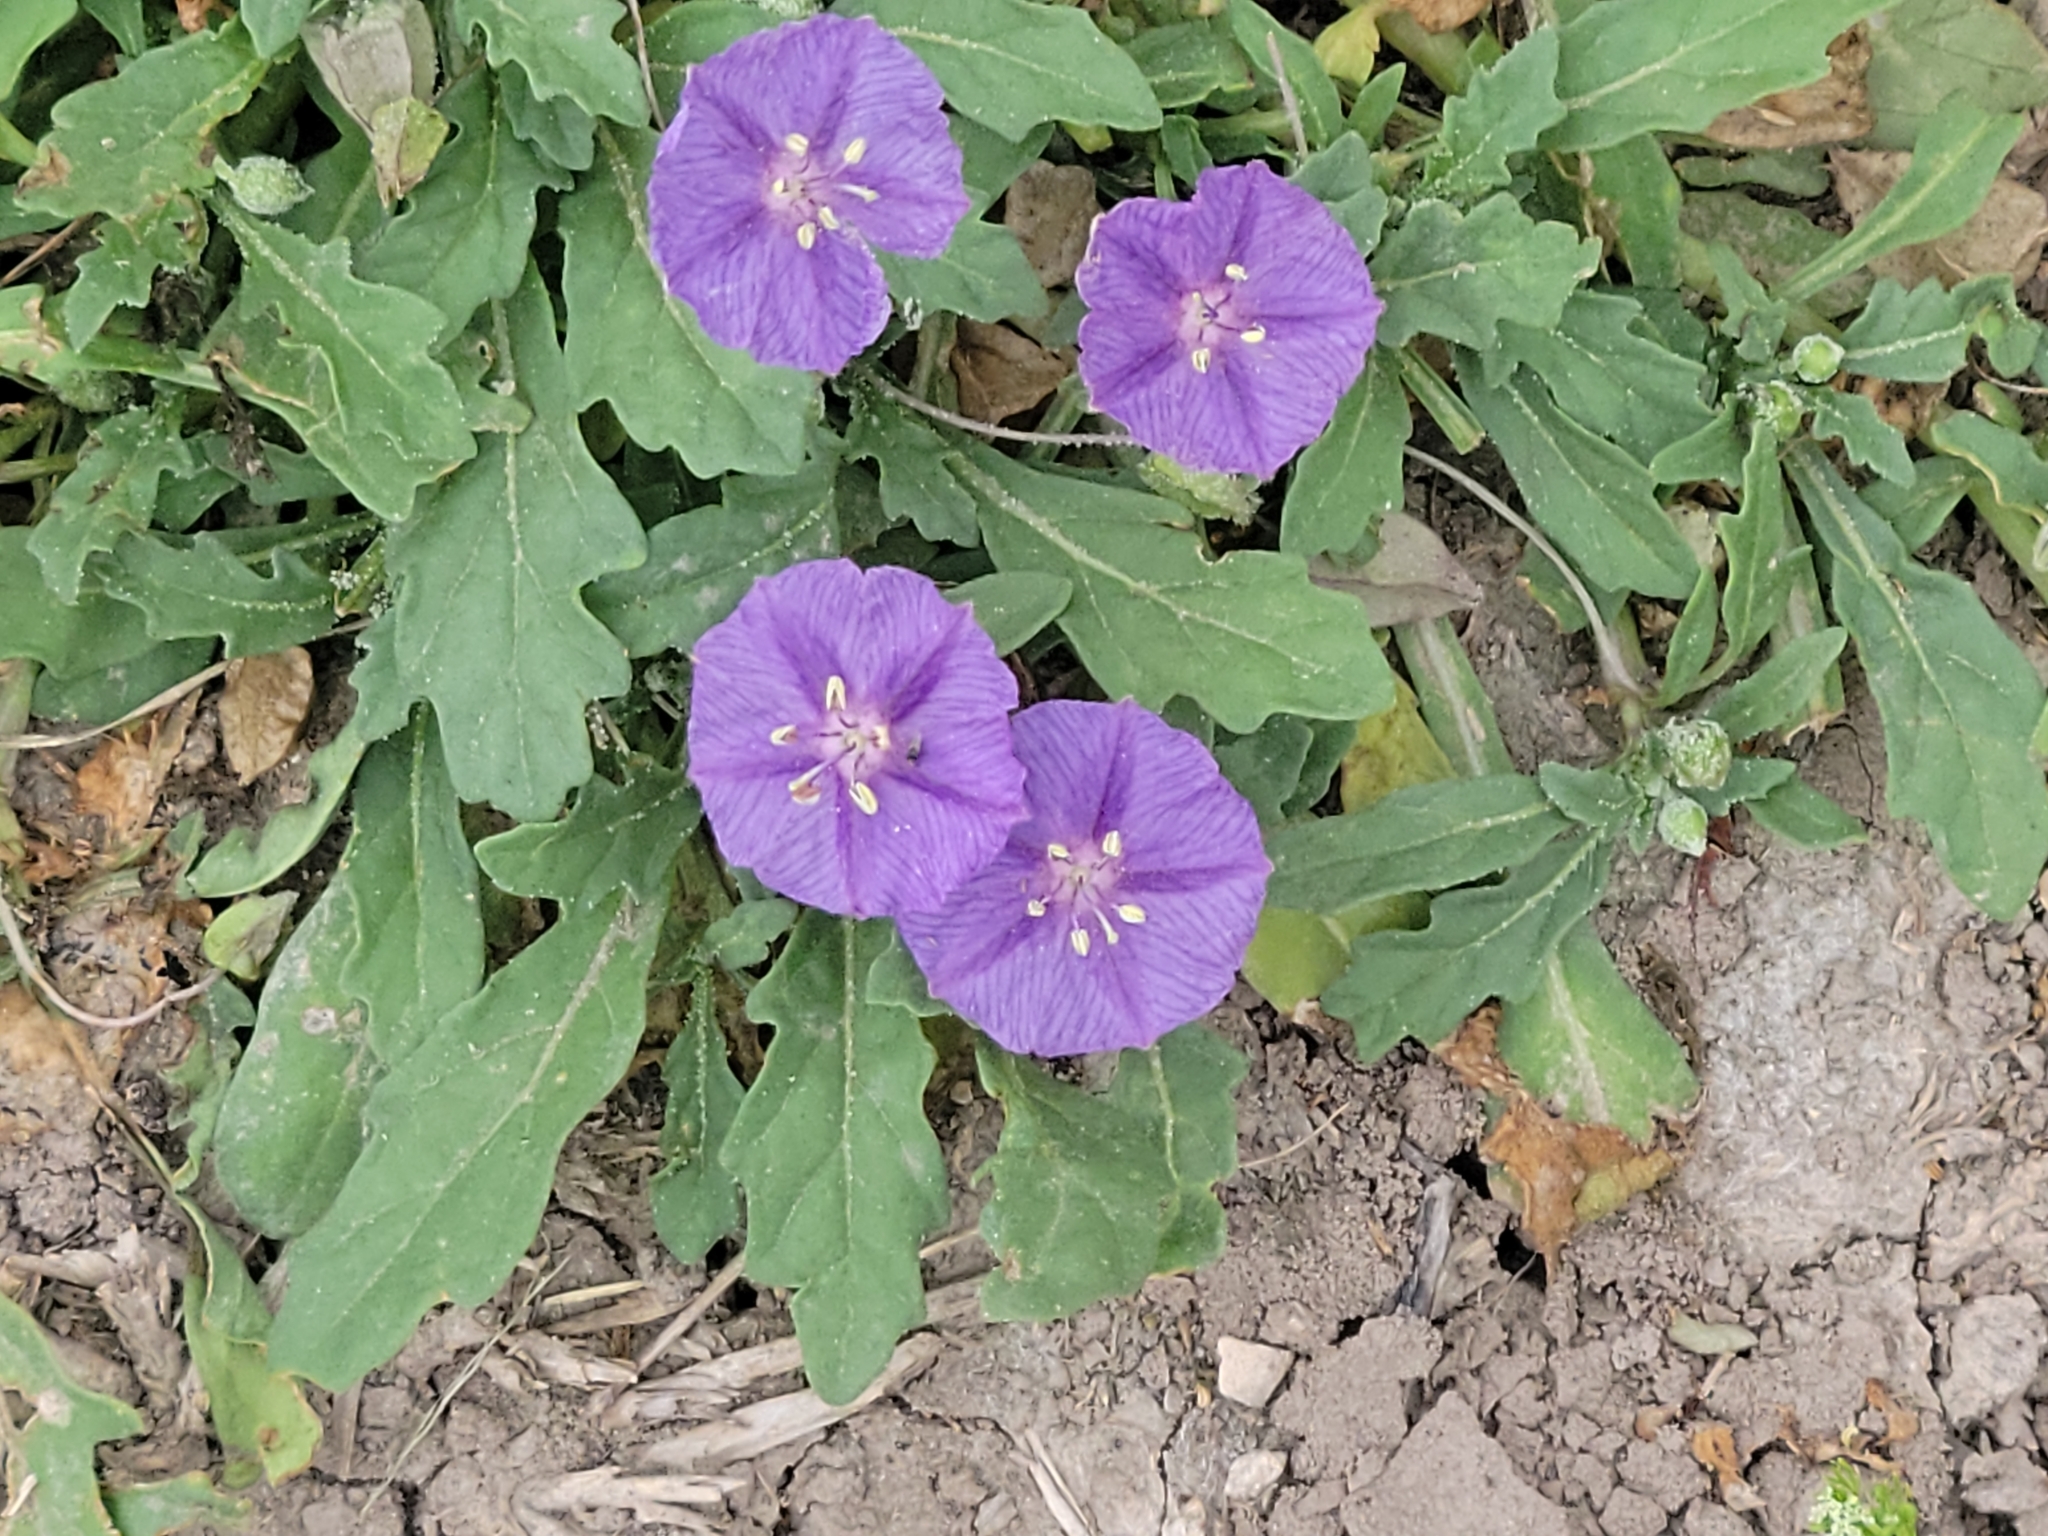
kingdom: Plantae
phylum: Tracheophyta
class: Magnoliopsida
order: Solanales
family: Solanaceae
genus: Quincula
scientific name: Quincula lobata
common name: Purple-ground-cherry
